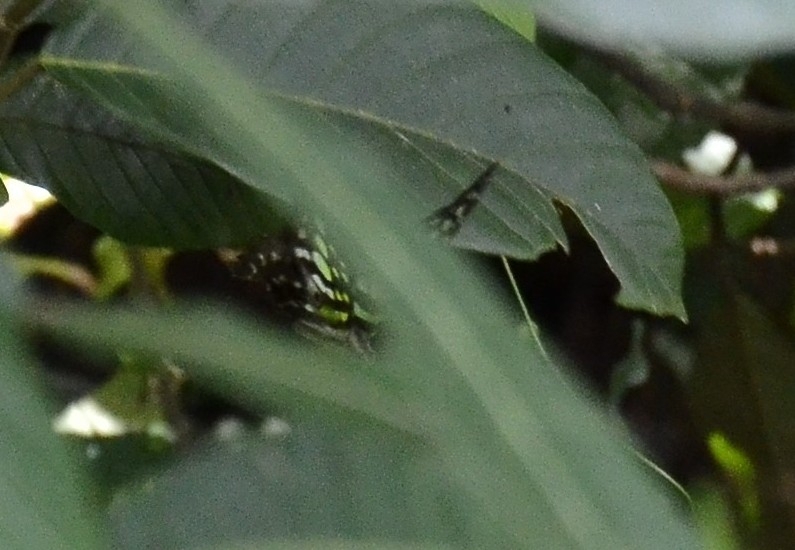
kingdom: Animalia
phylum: Arthropoda
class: Insecta
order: Lepidoptera
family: Papilionidae
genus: Graphium
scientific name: Graphium agamemnon
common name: Tailed jay
